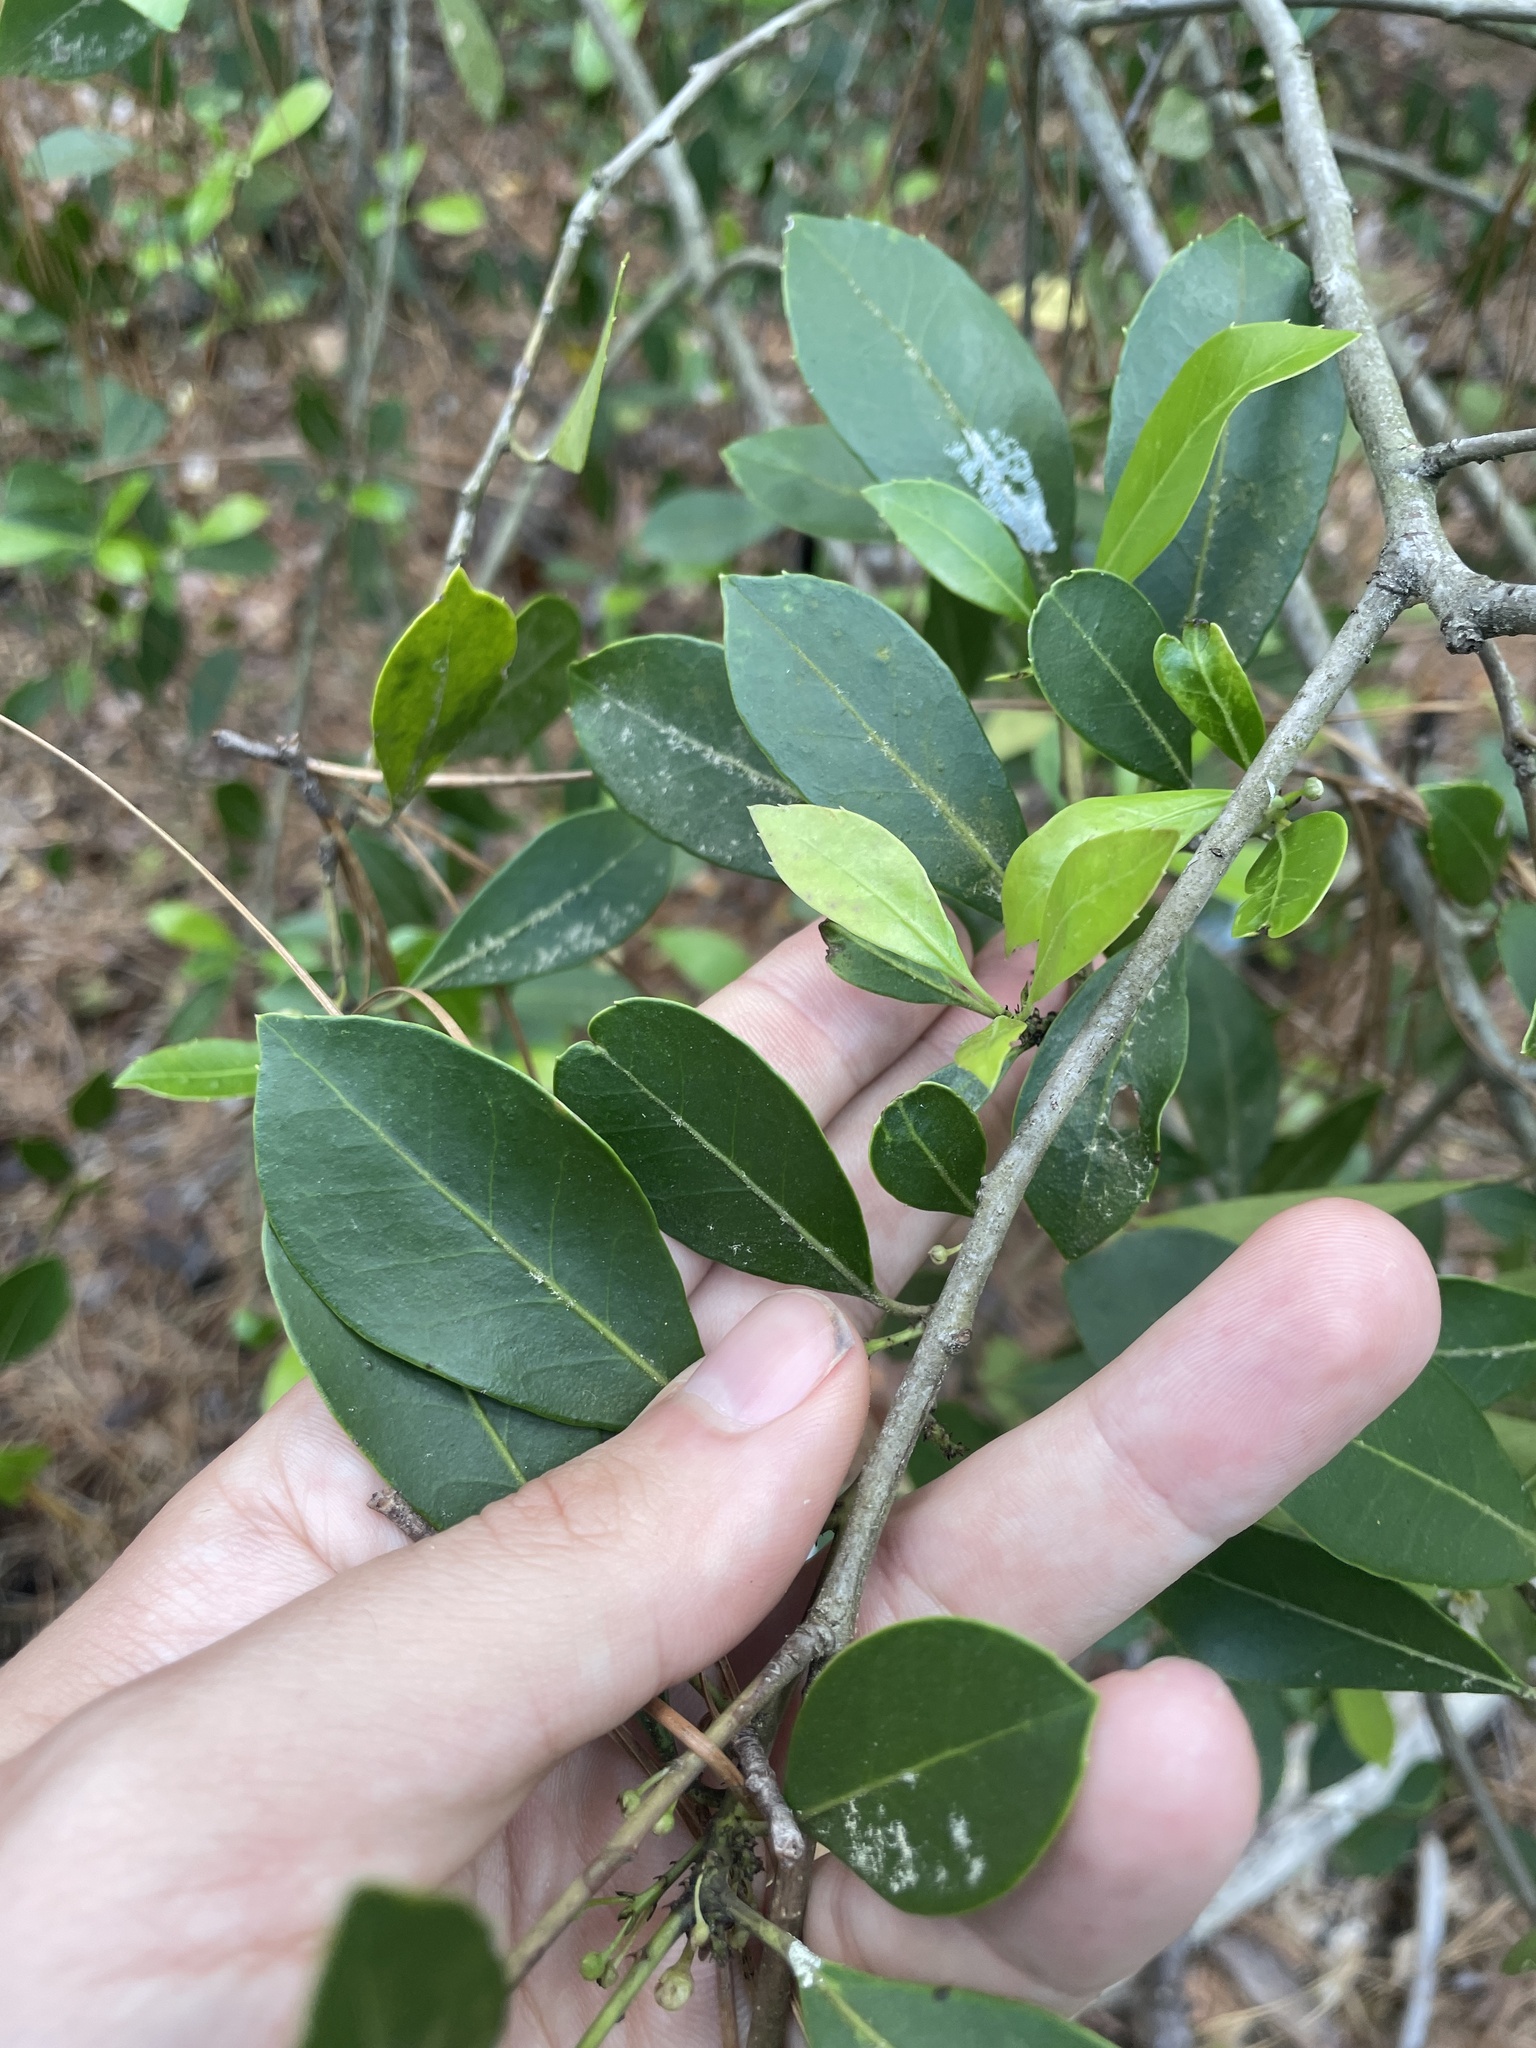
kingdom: Plantae
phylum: Tracheophyta
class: Magnoliopsida
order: Aquifoliales
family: Aquifoliaceae
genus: Ilex
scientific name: Ilex coriacea
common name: Sweet gallberry
